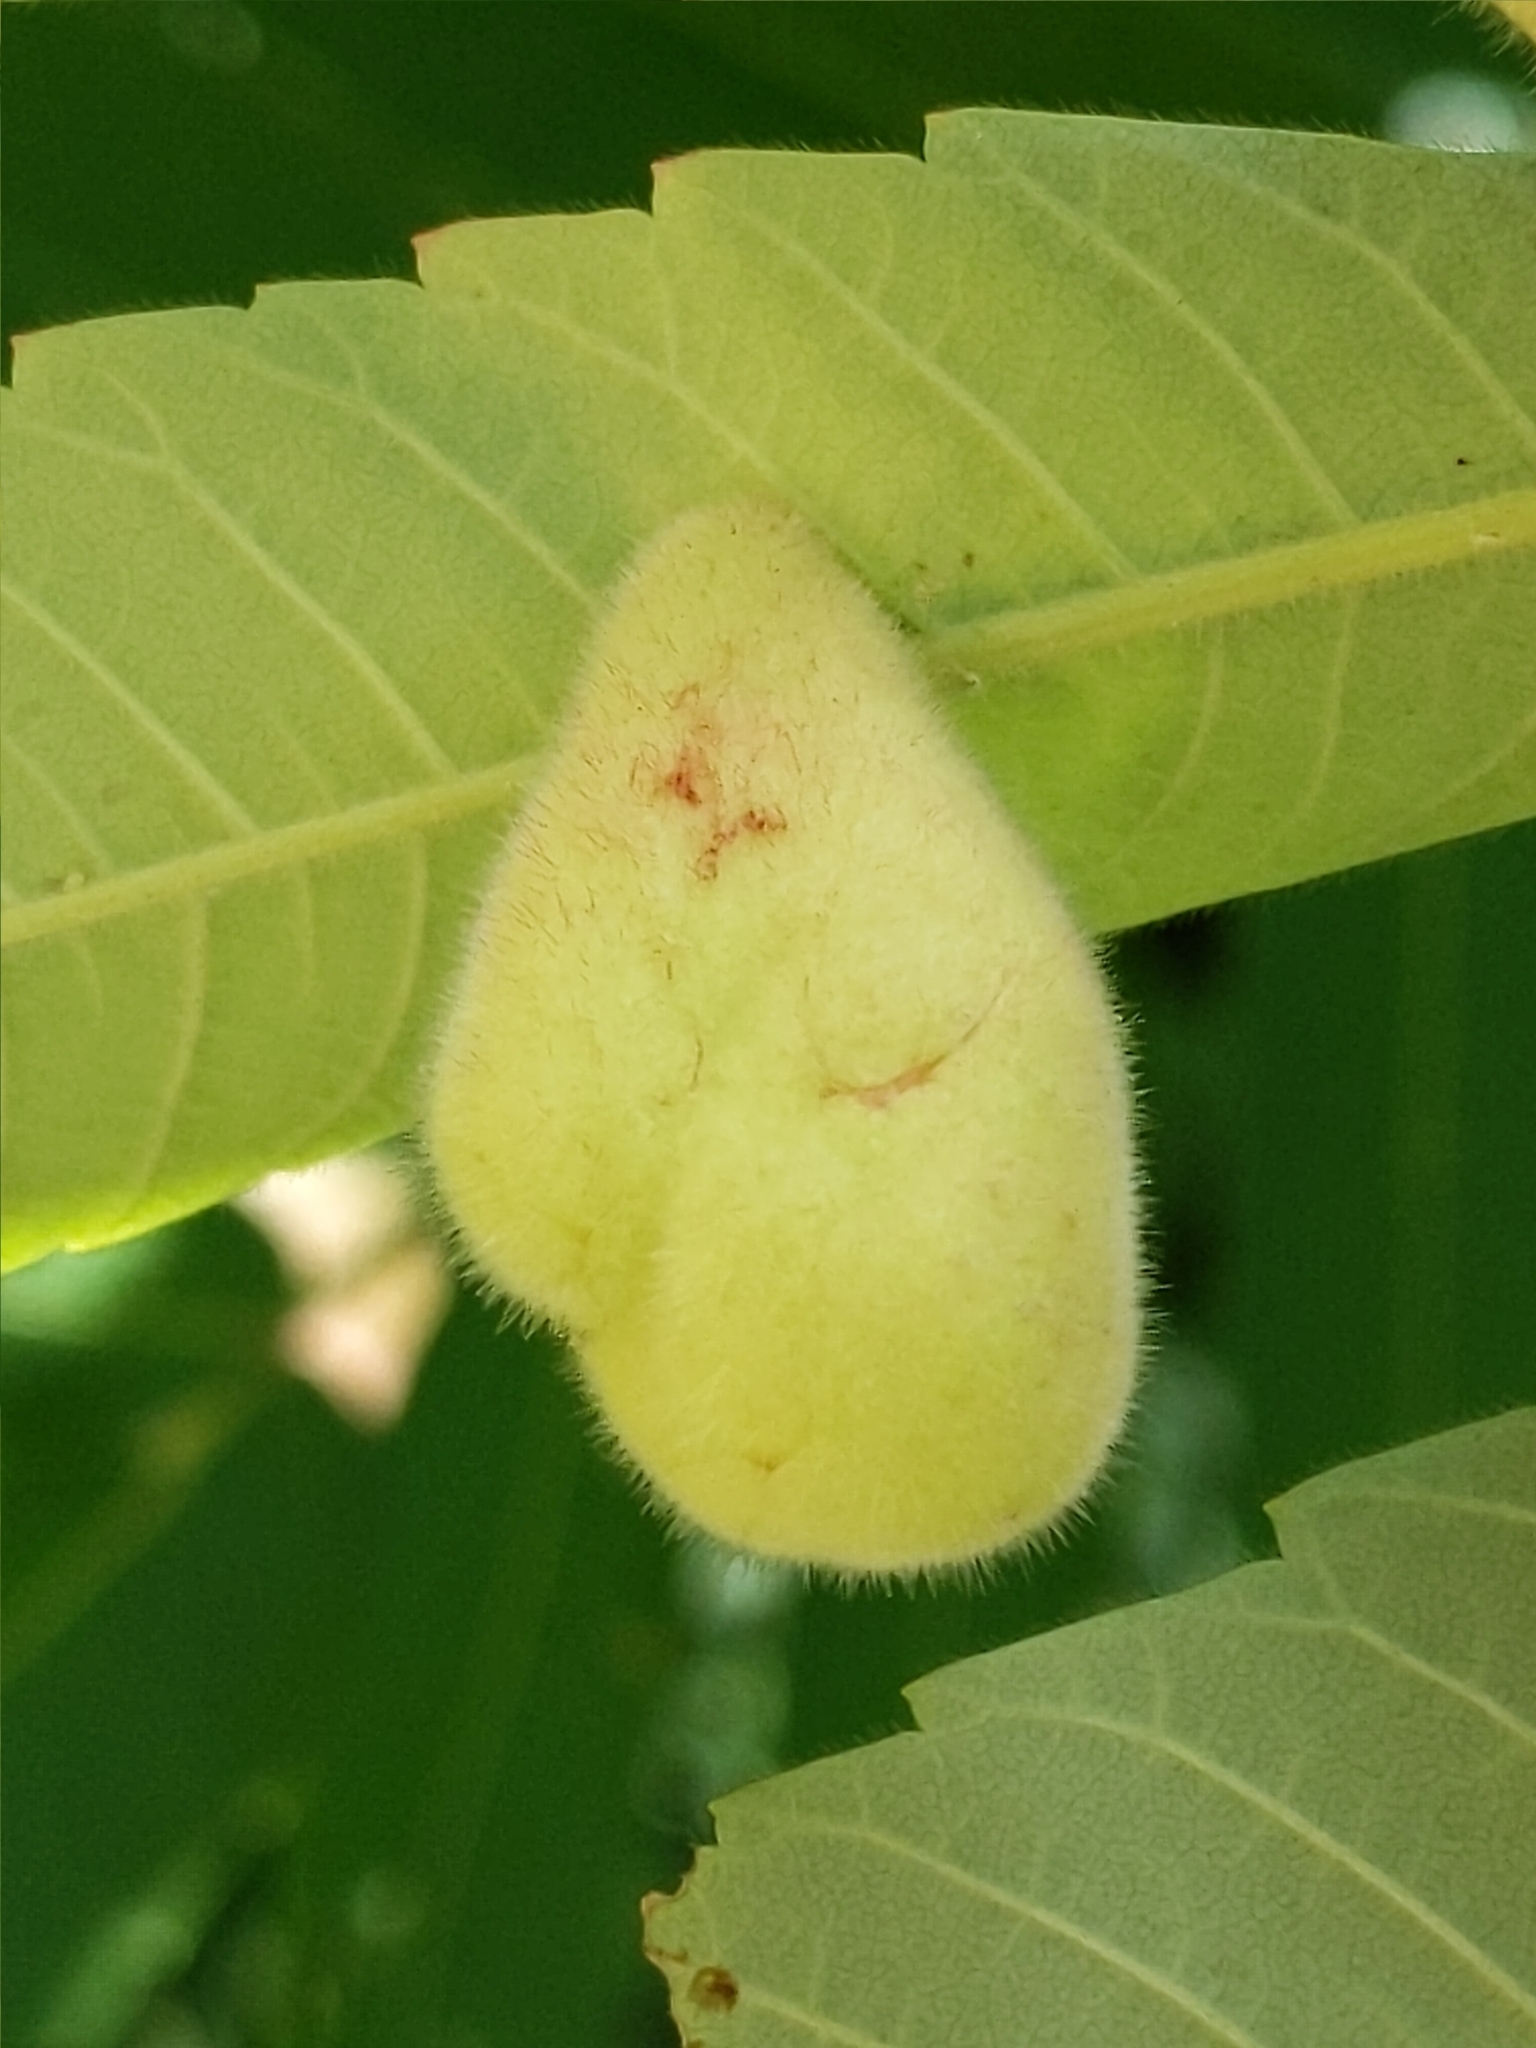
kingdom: Animalia
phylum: Arthropoda
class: Insecta
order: Hemiptera
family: Aphididae
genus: Melaphis
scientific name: Melaphis rhois
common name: Sumac gall aphid
